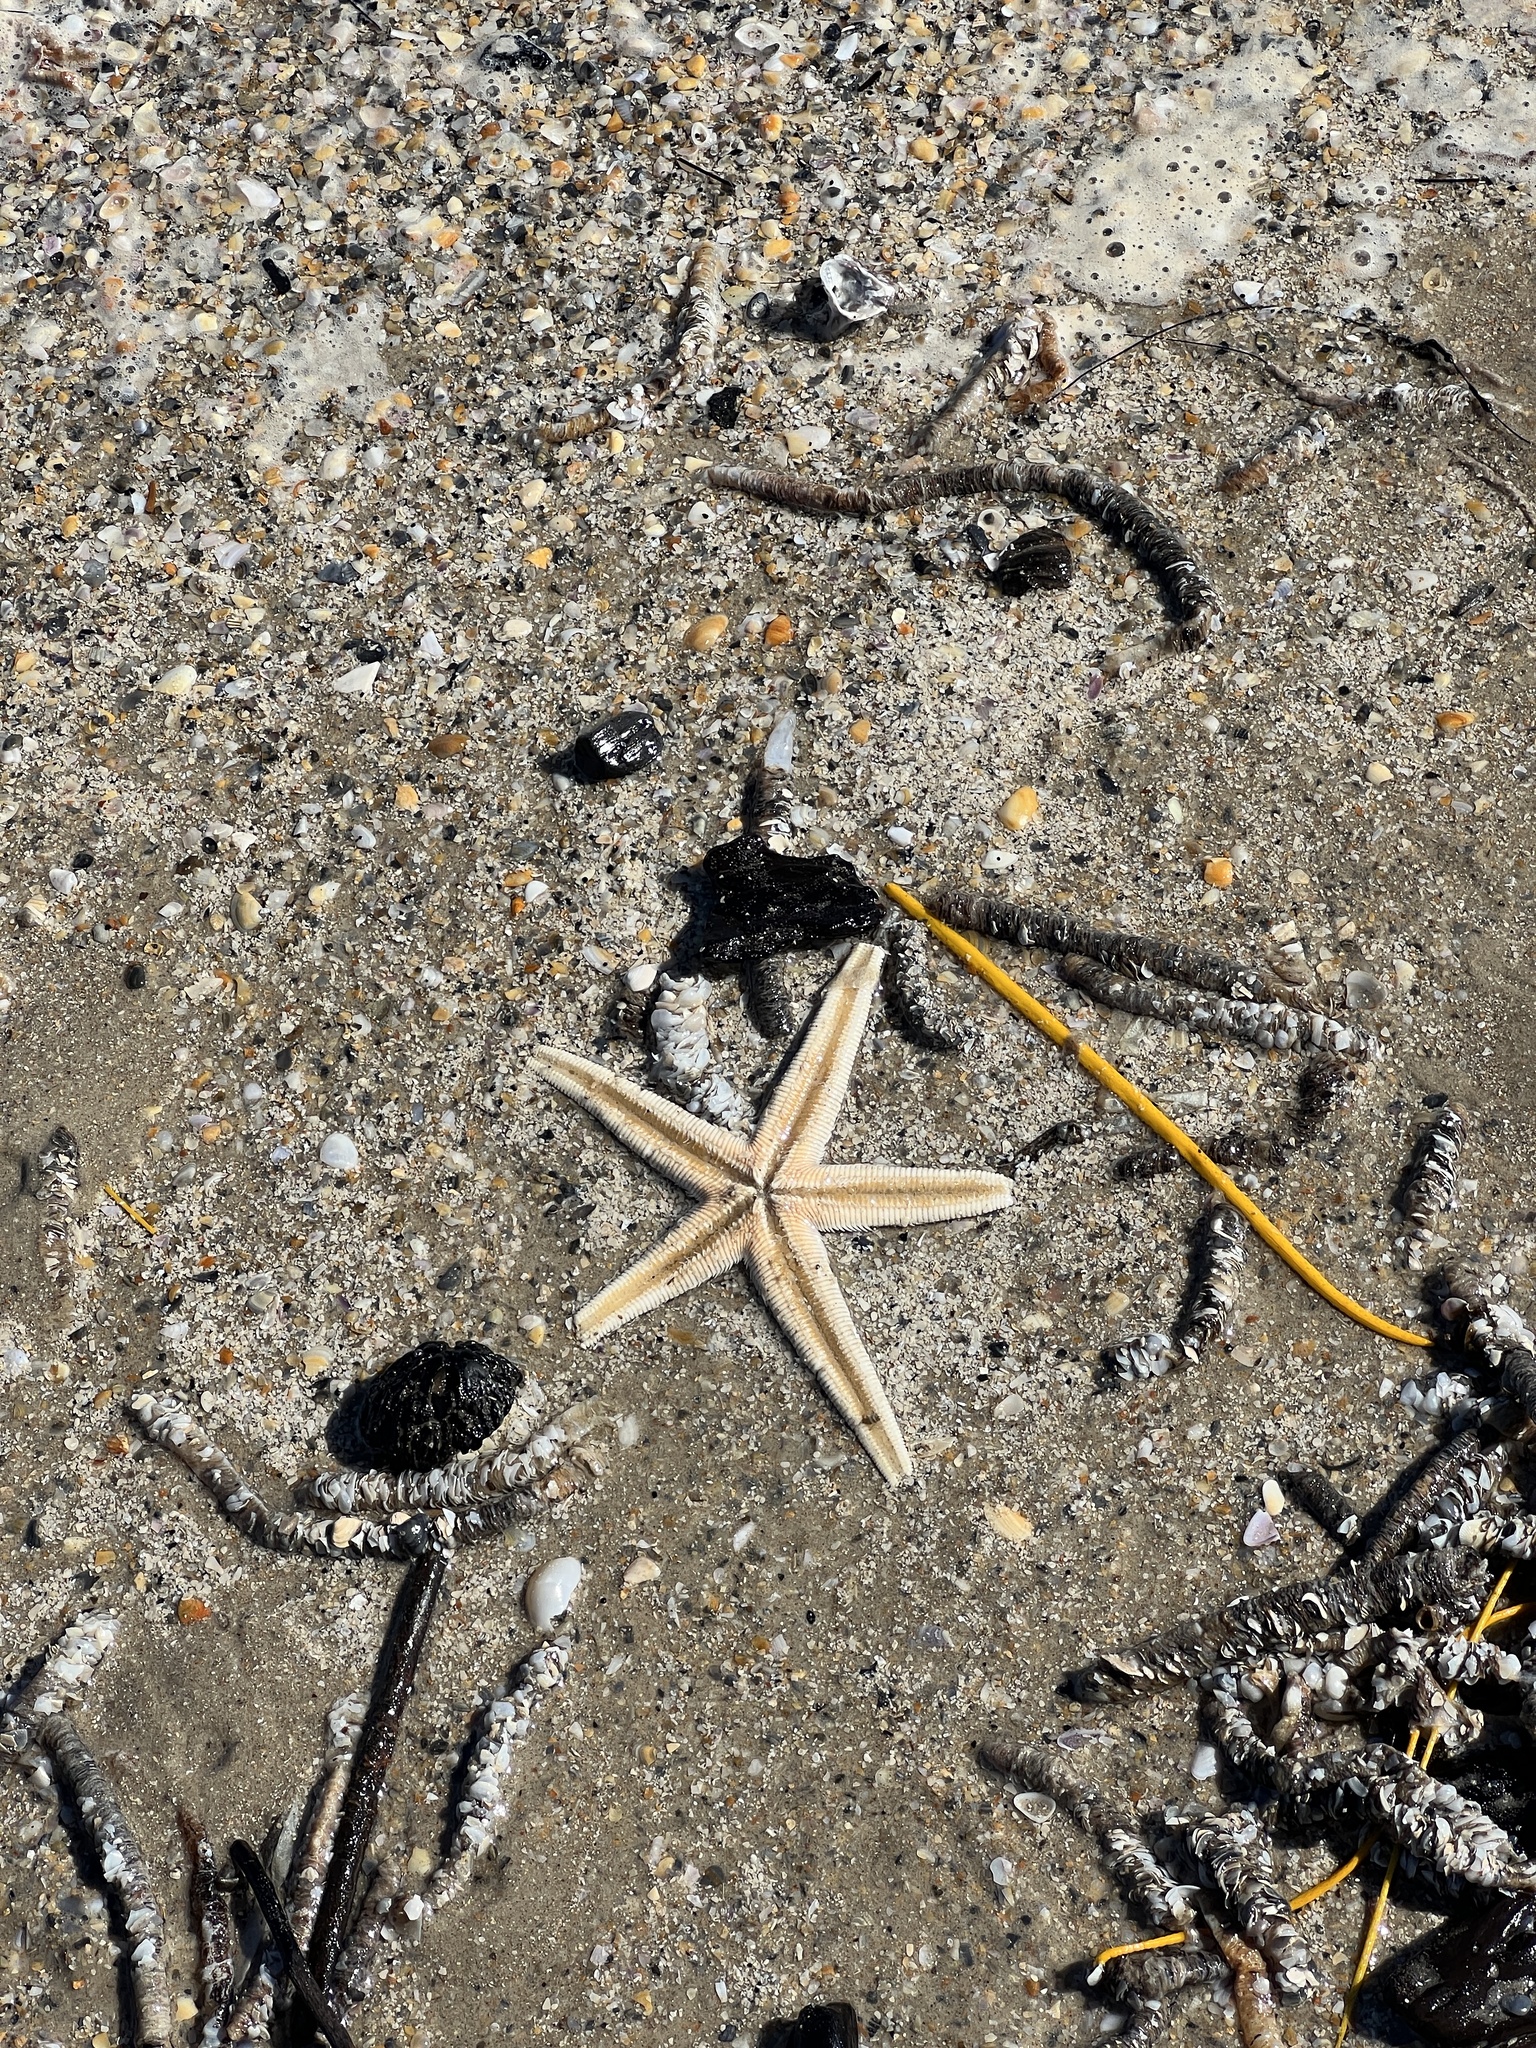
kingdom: Animalia
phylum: Echinodermata
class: Asteroidea
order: Paxillosida
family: Luidiidae
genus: Luidia
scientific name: Luidia clathrata
